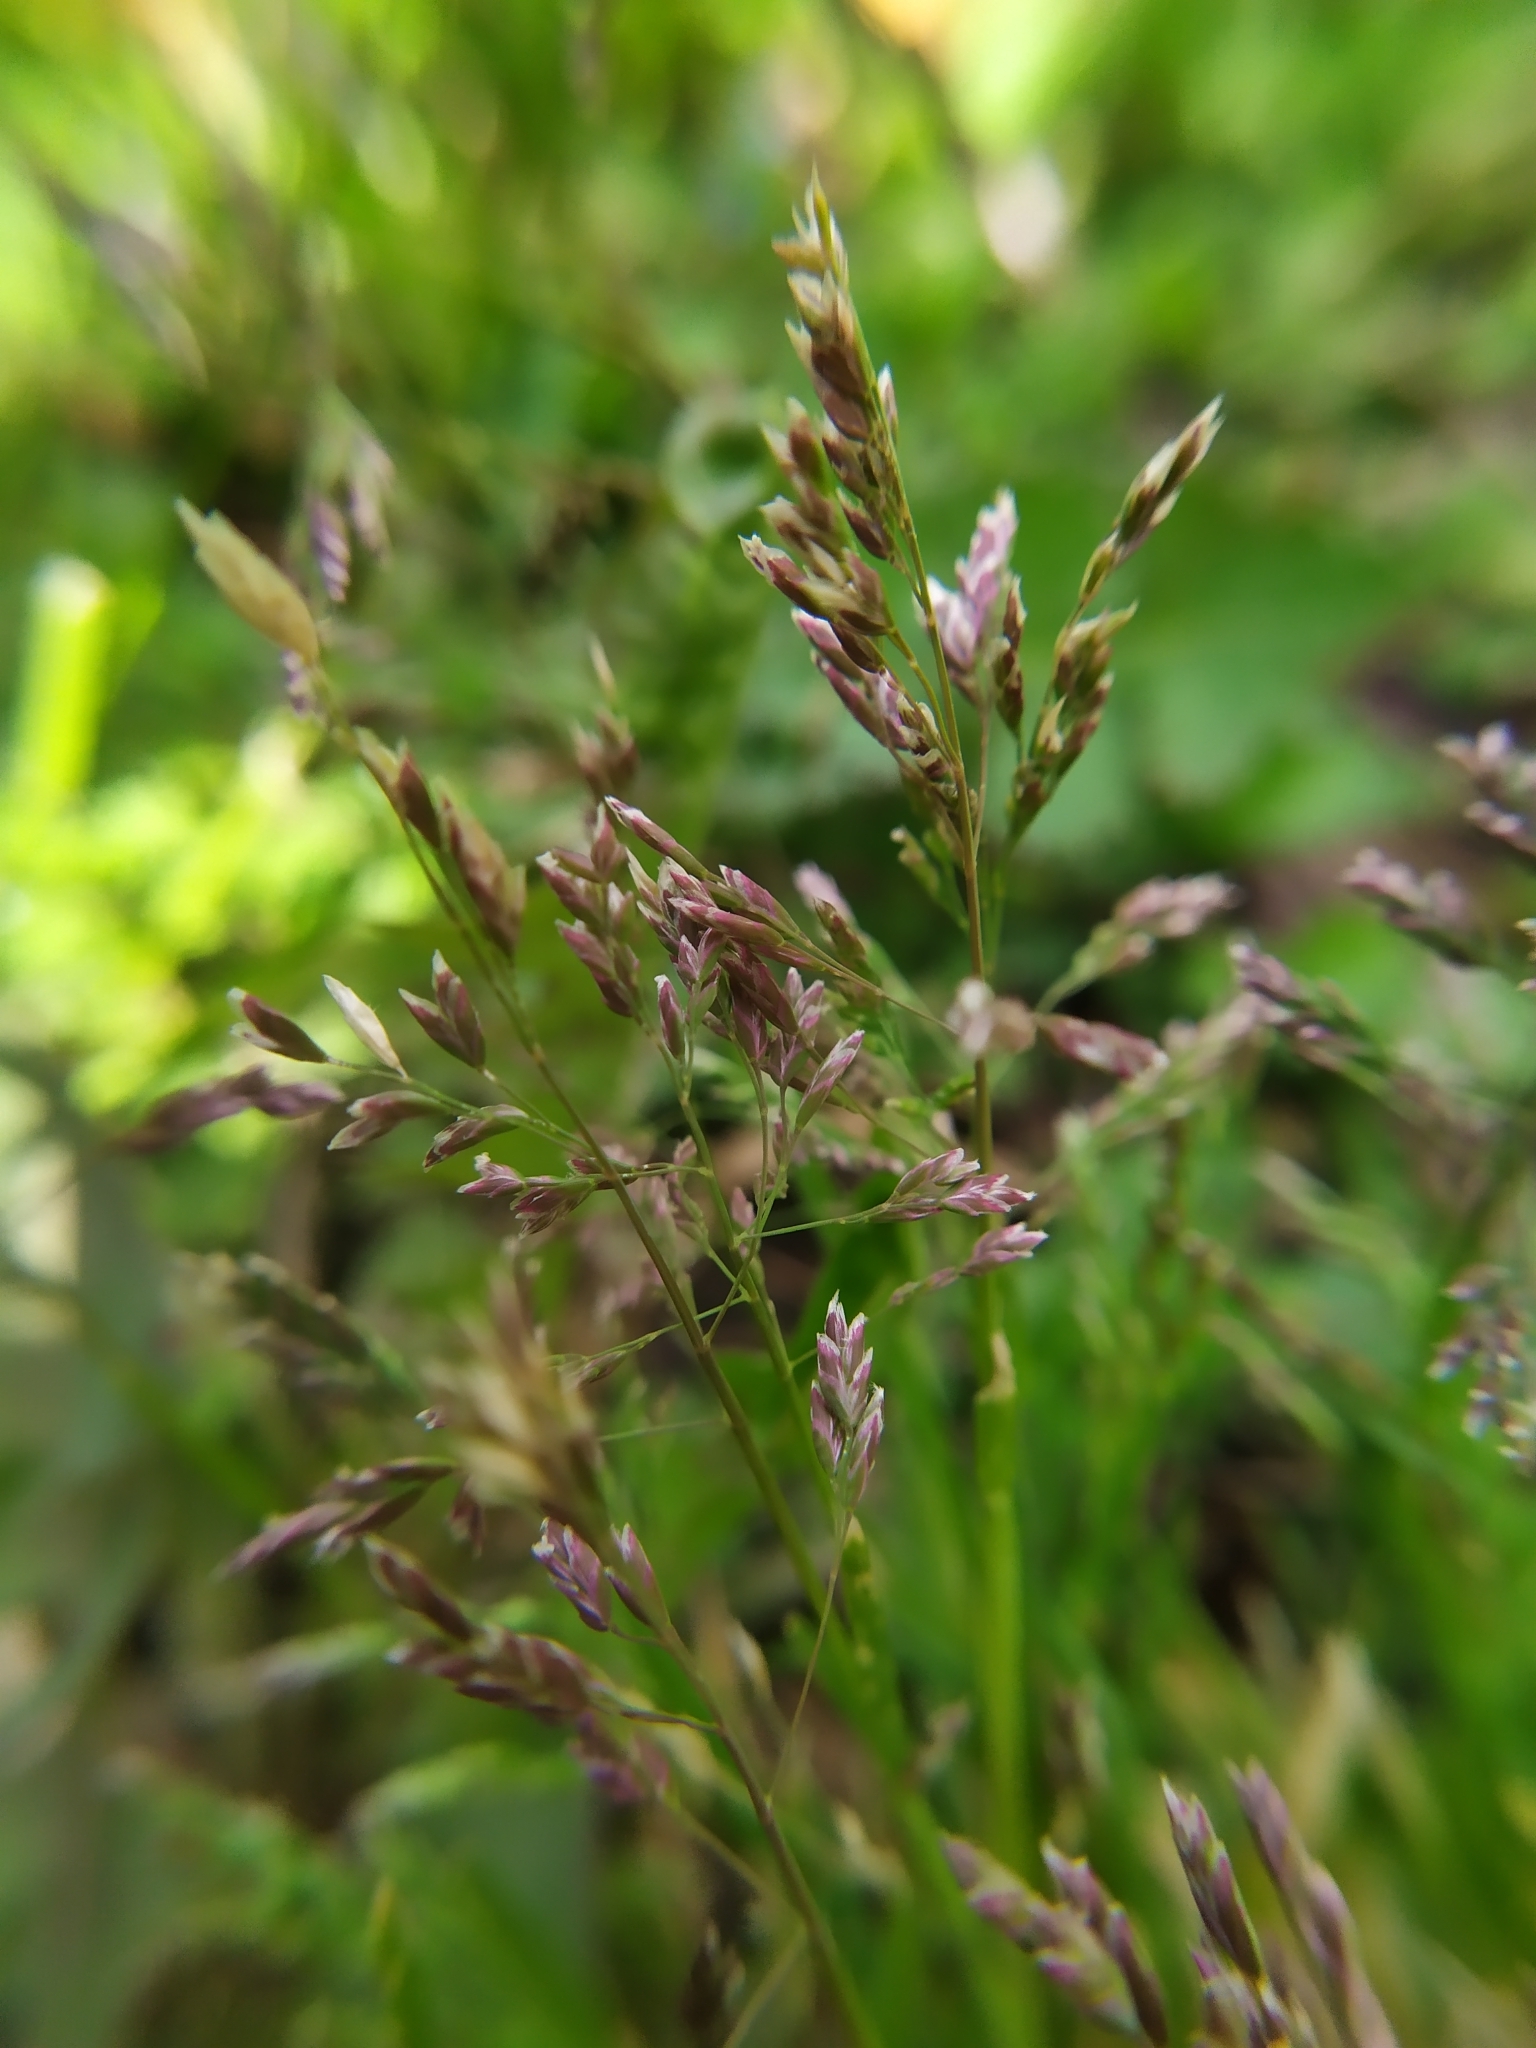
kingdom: Plantae
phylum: Tracheophyta
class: Liliopsida
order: Poales
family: Poaceae
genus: Poa
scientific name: Poa annua
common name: Annual bluegrass
